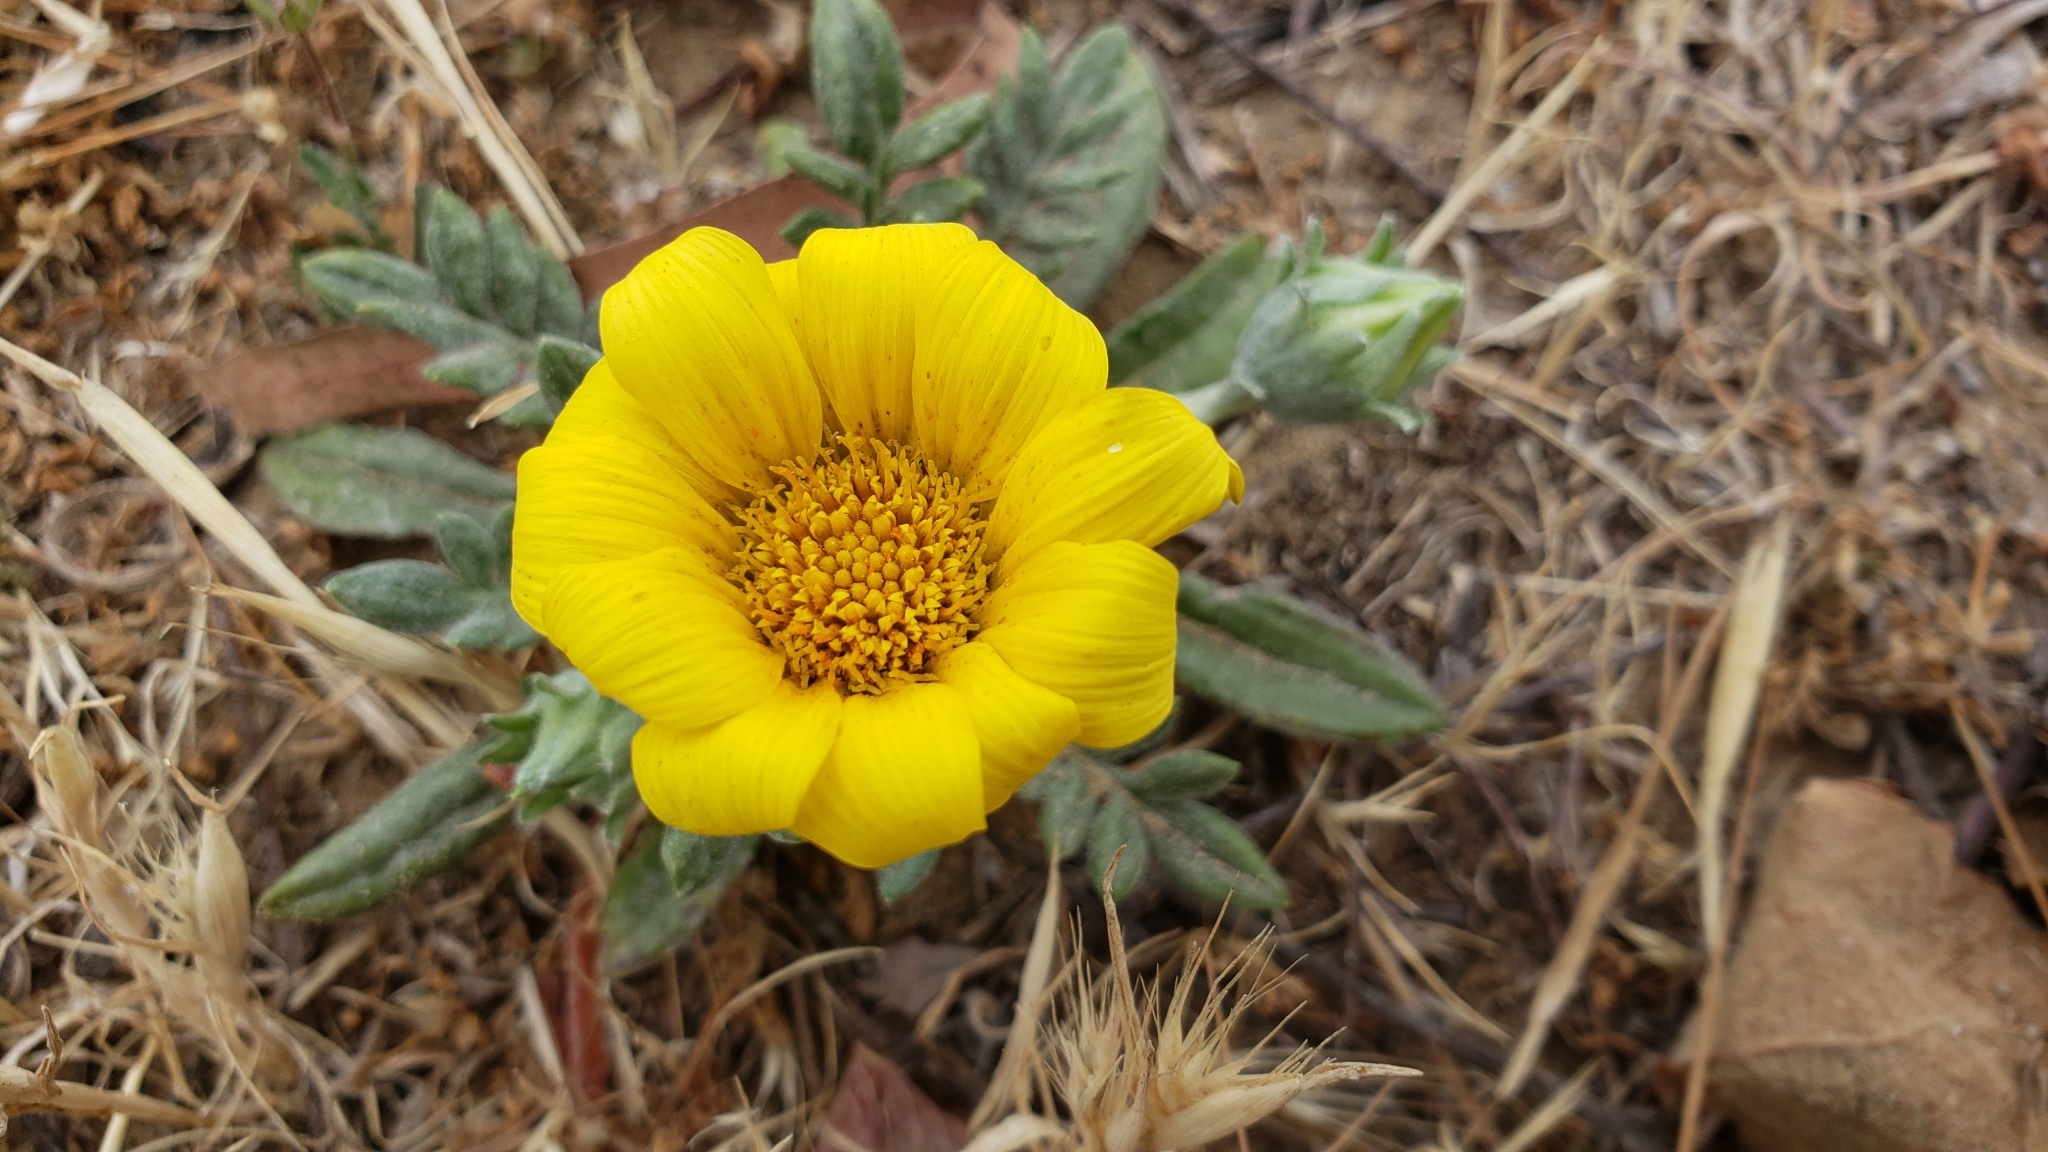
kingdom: Plantae
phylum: Tracheophyta
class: Magnoliopsida
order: Asterales
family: Asteraceae
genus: Glebionis
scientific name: Glebionis coronaria
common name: Crowndaisy
